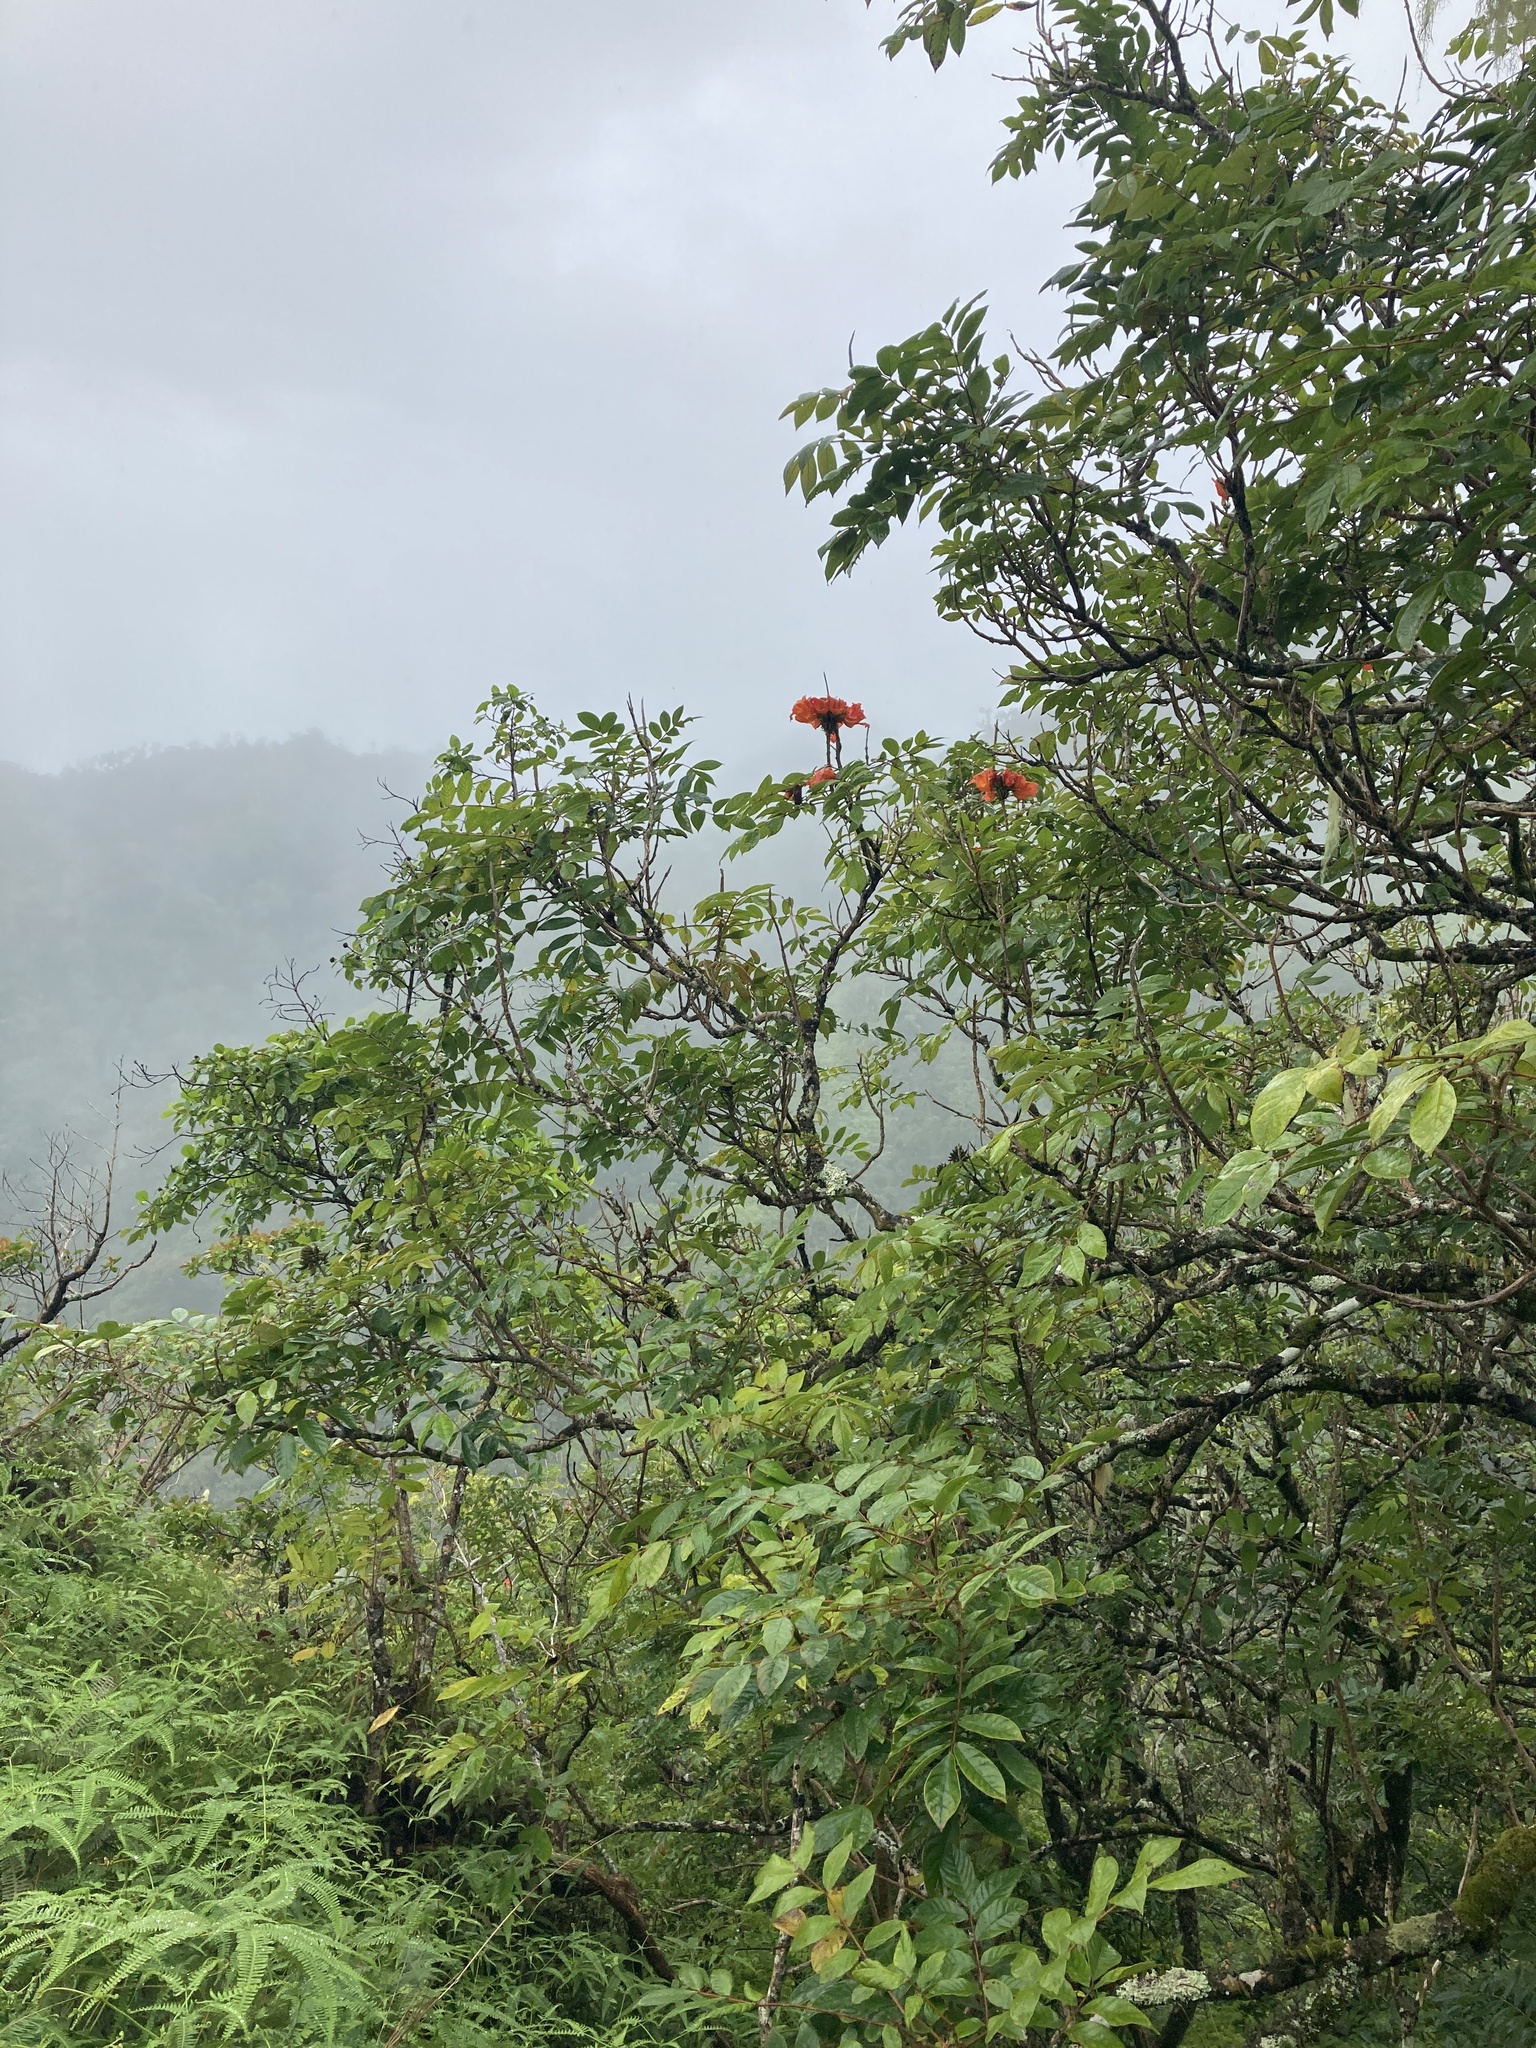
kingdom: Plantae
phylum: Tracheophyta
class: Magnoliopsida
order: Lamiales
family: Bignoniaceae
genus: Spathodea
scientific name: Spathodea campanulata
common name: African tuliptree
